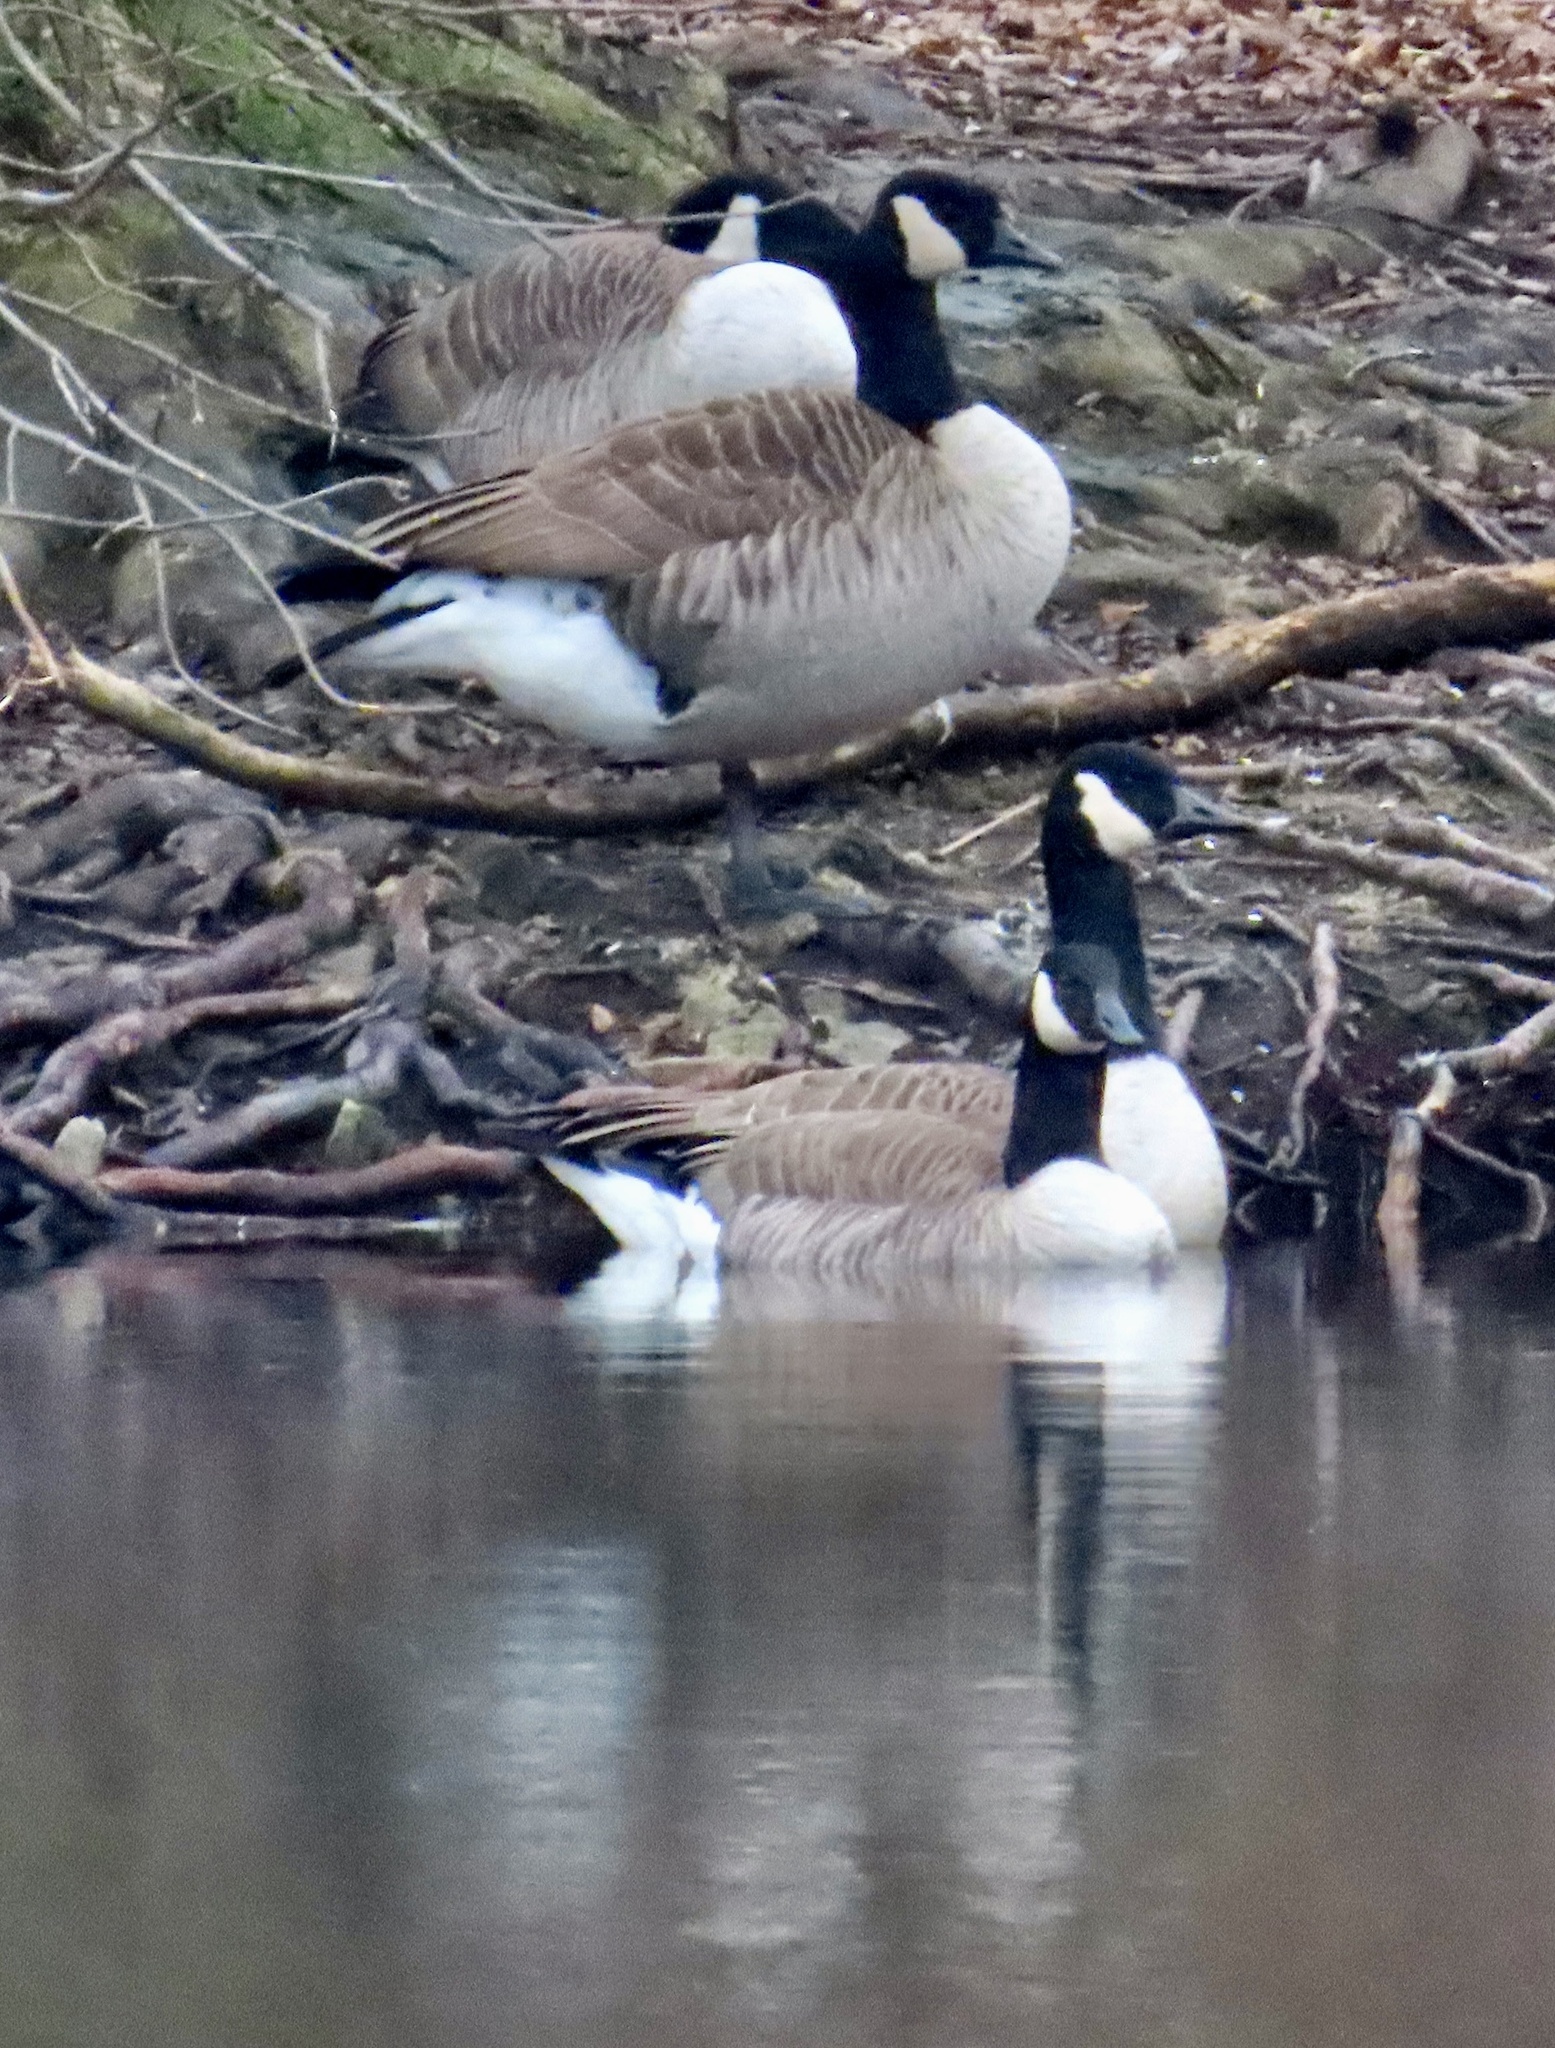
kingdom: Animalia
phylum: Chordata
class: Aves
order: Anseriformes
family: Anatidae
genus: Branta
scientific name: Branta canadensis
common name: Canada goose
